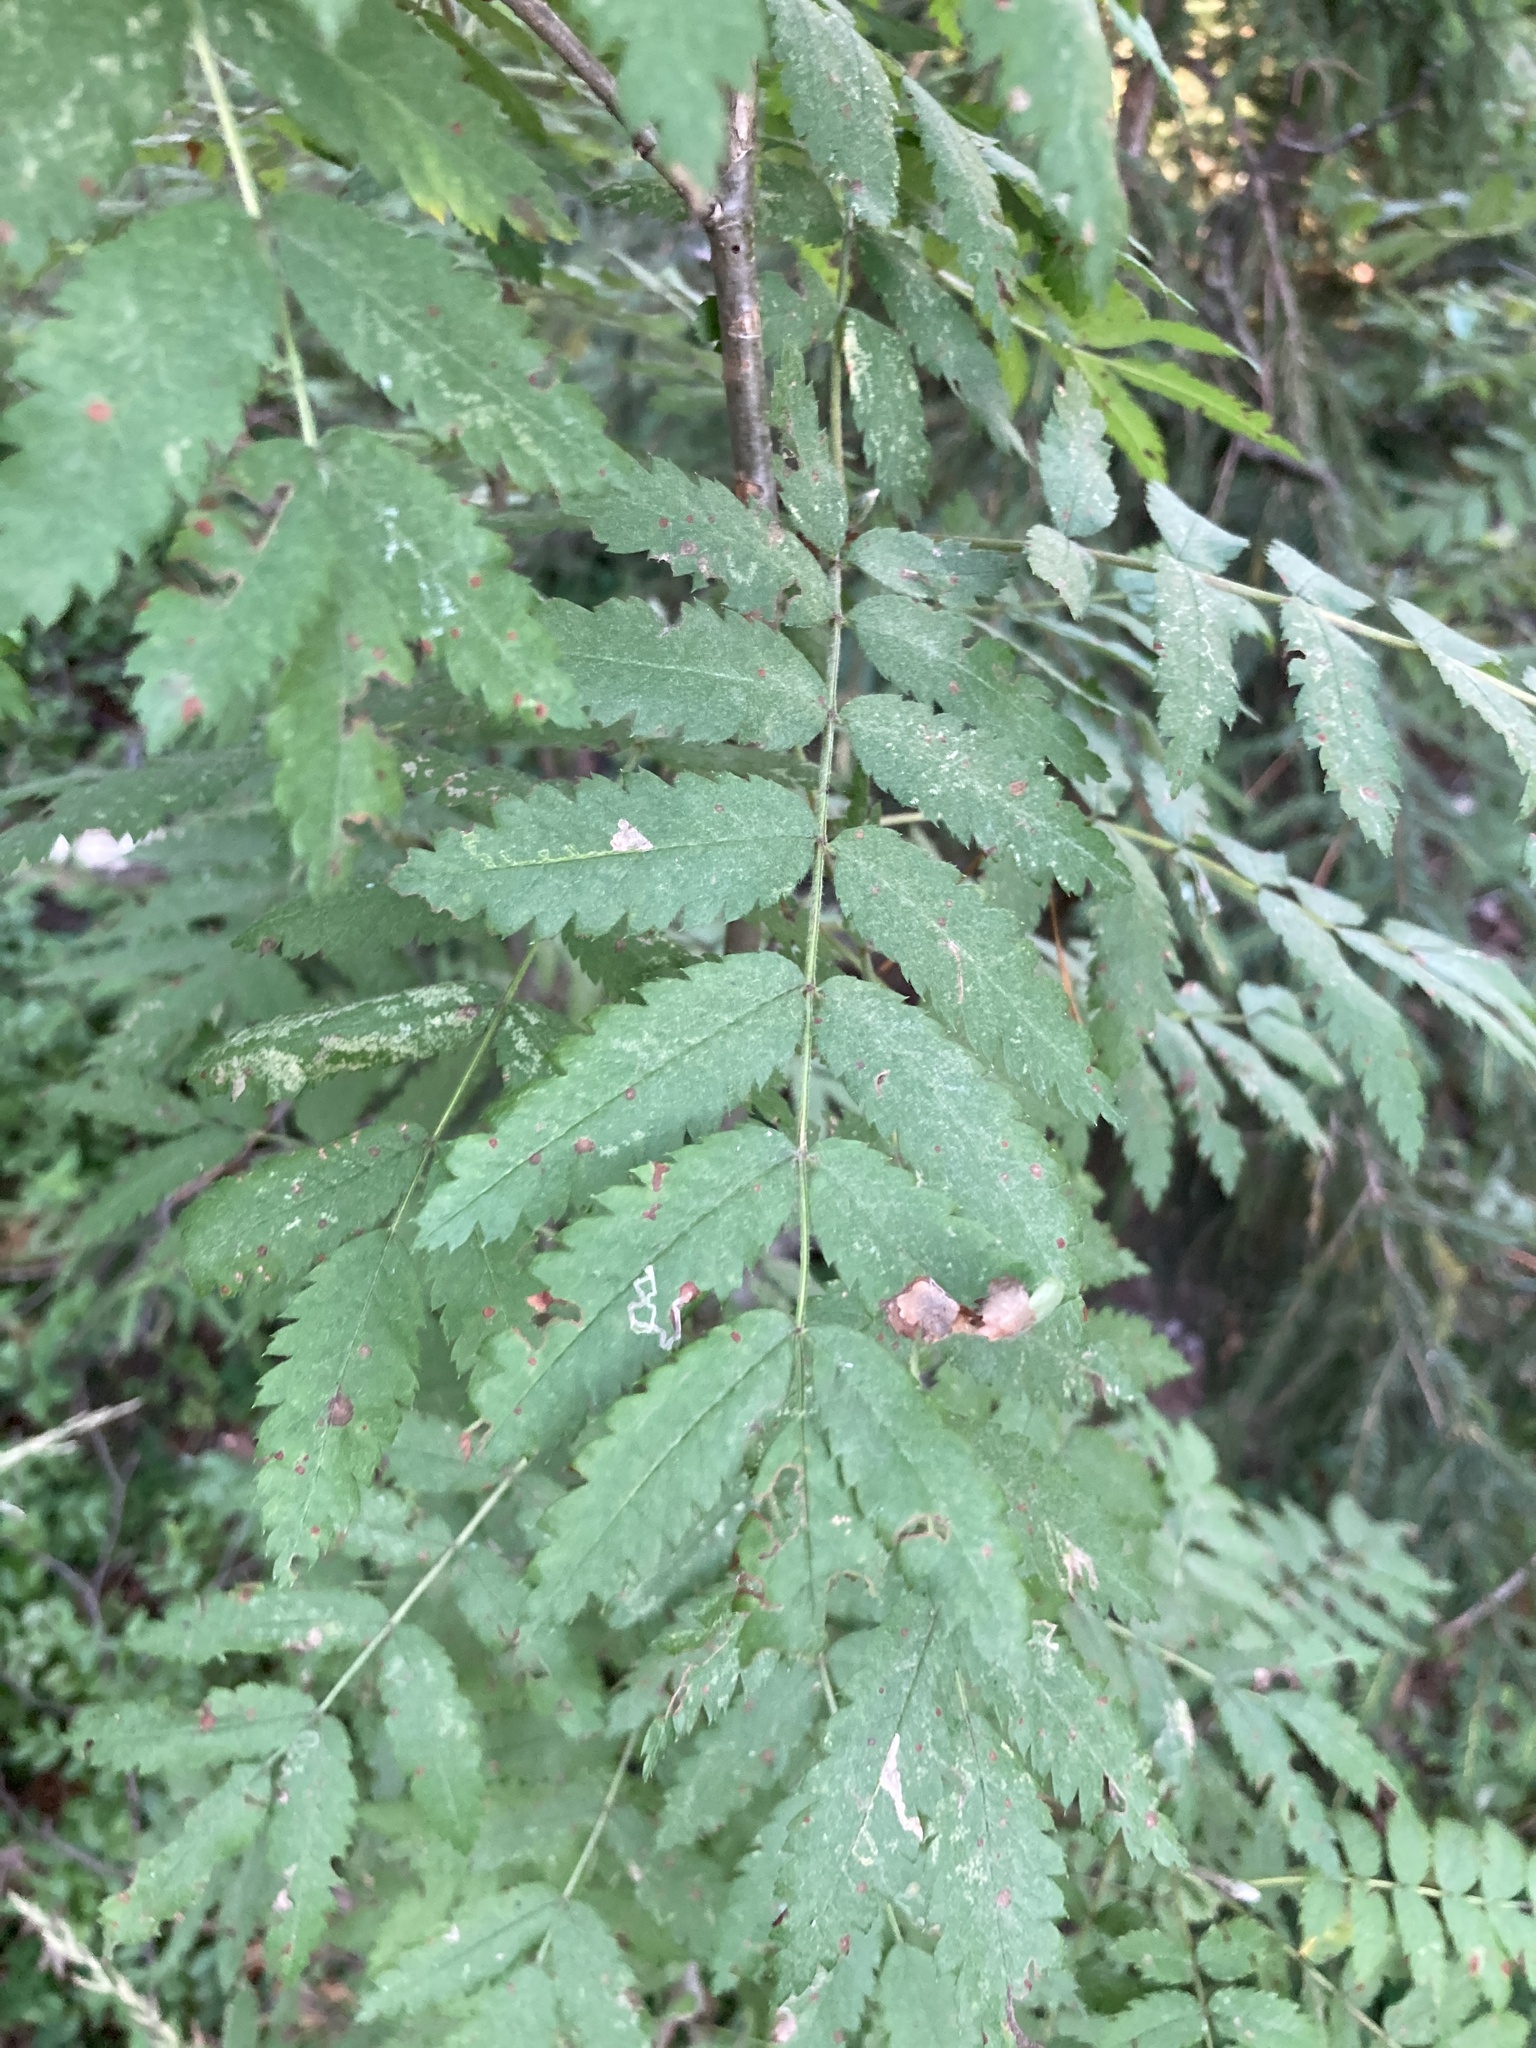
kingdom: Plantae
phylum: Tracheophyta
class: Magnoliopsida
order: Rosales
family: Rosaceae
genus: Sorbus
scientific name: Sorbus aucuparia
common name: Rowan
